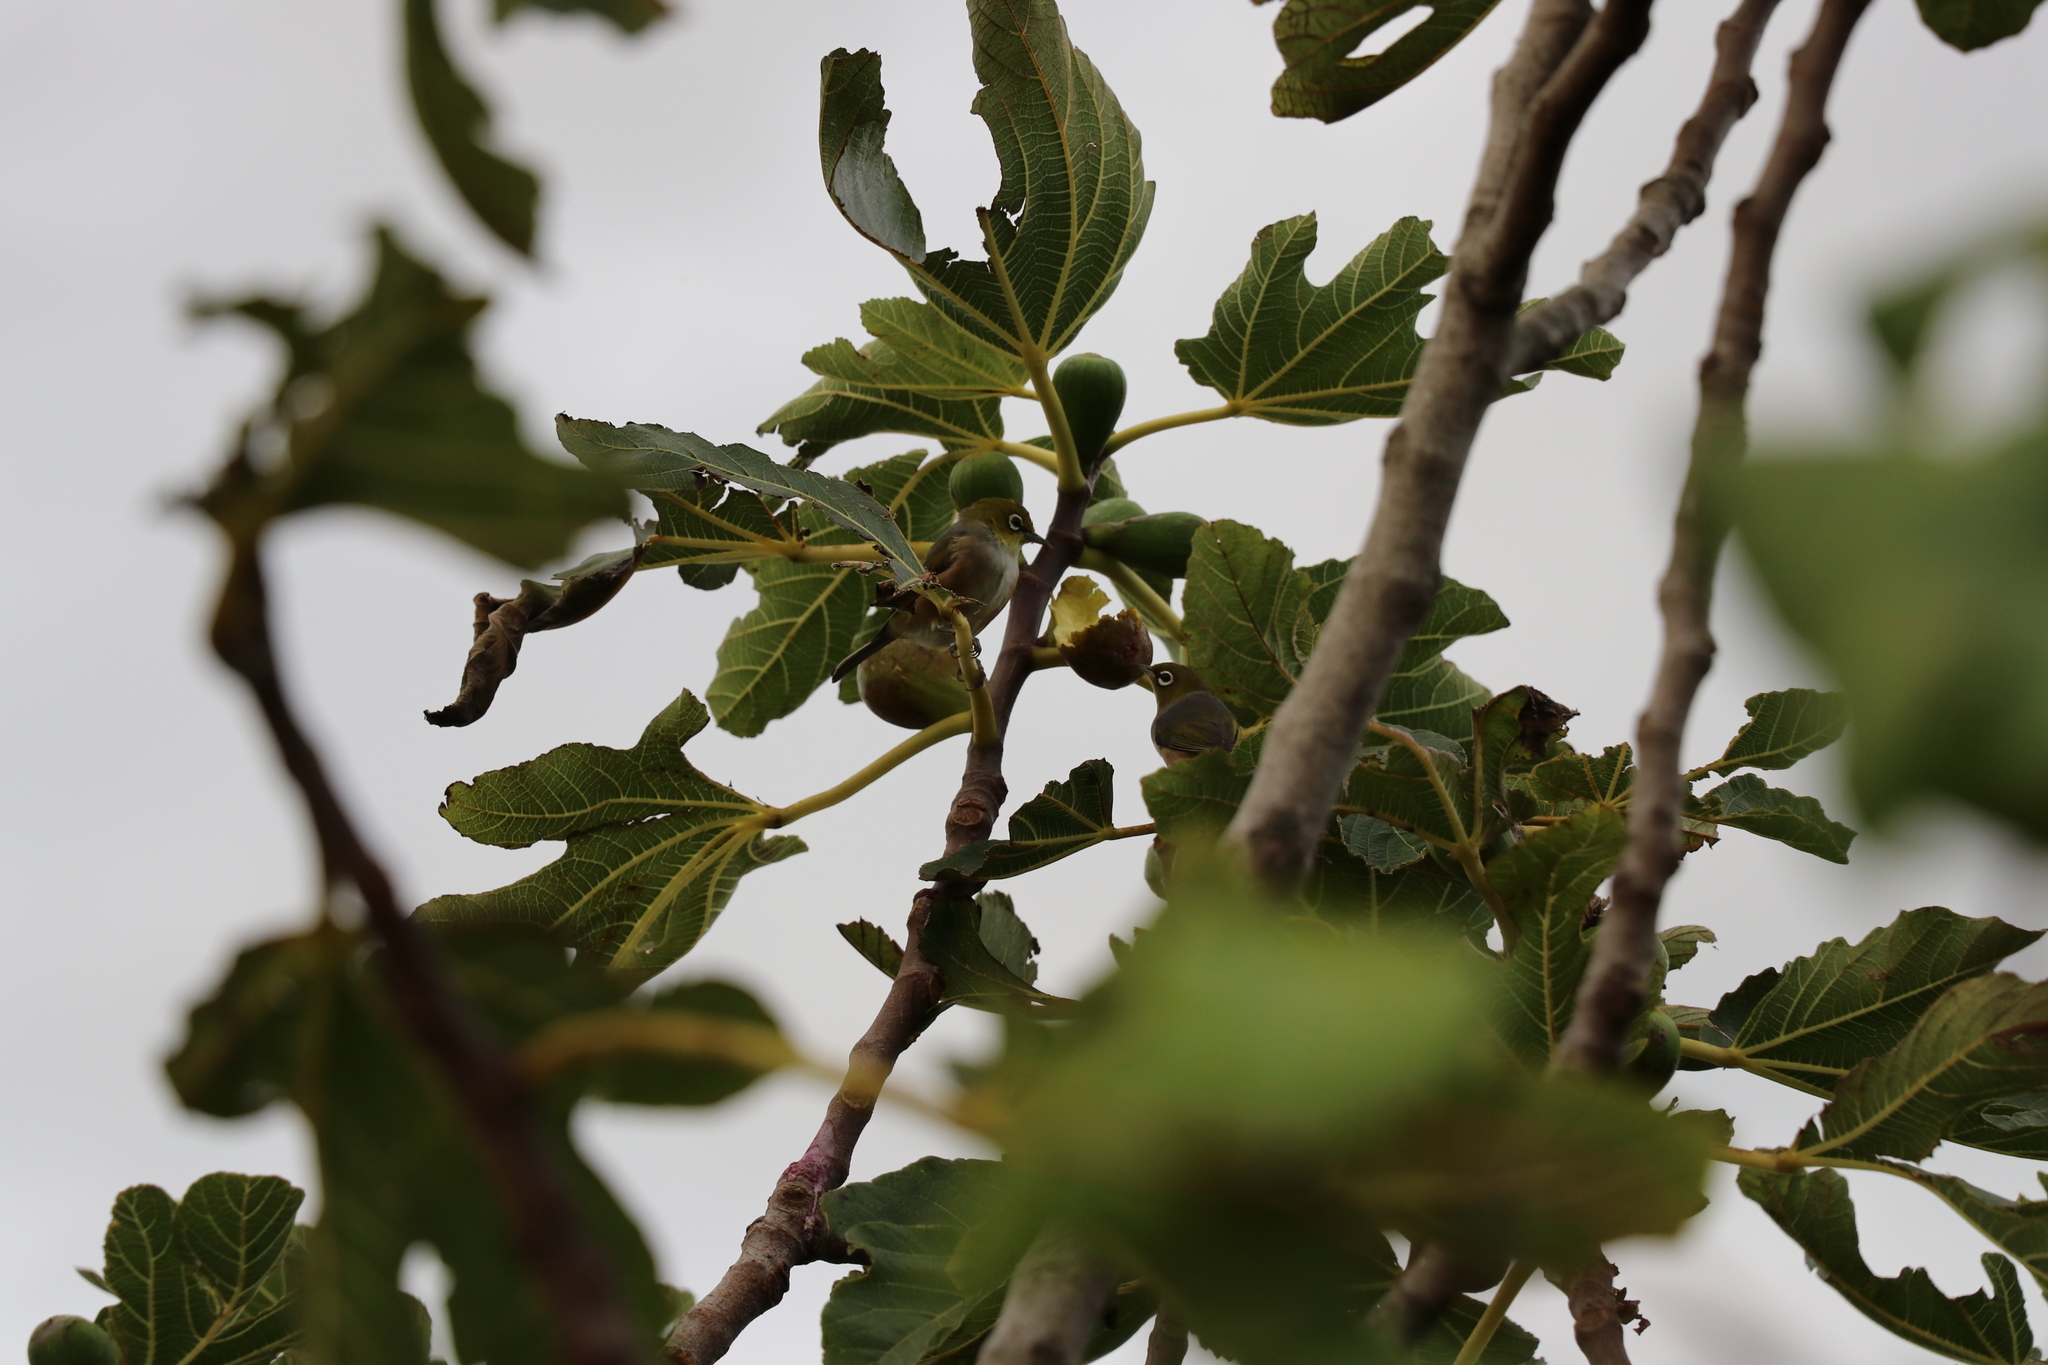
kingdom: Animalia
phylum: Chordata
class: Aves
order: Passeriformes
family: Zosteropidae
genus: Zosterops
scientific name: Zosterops lateralis
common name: Silvereye
